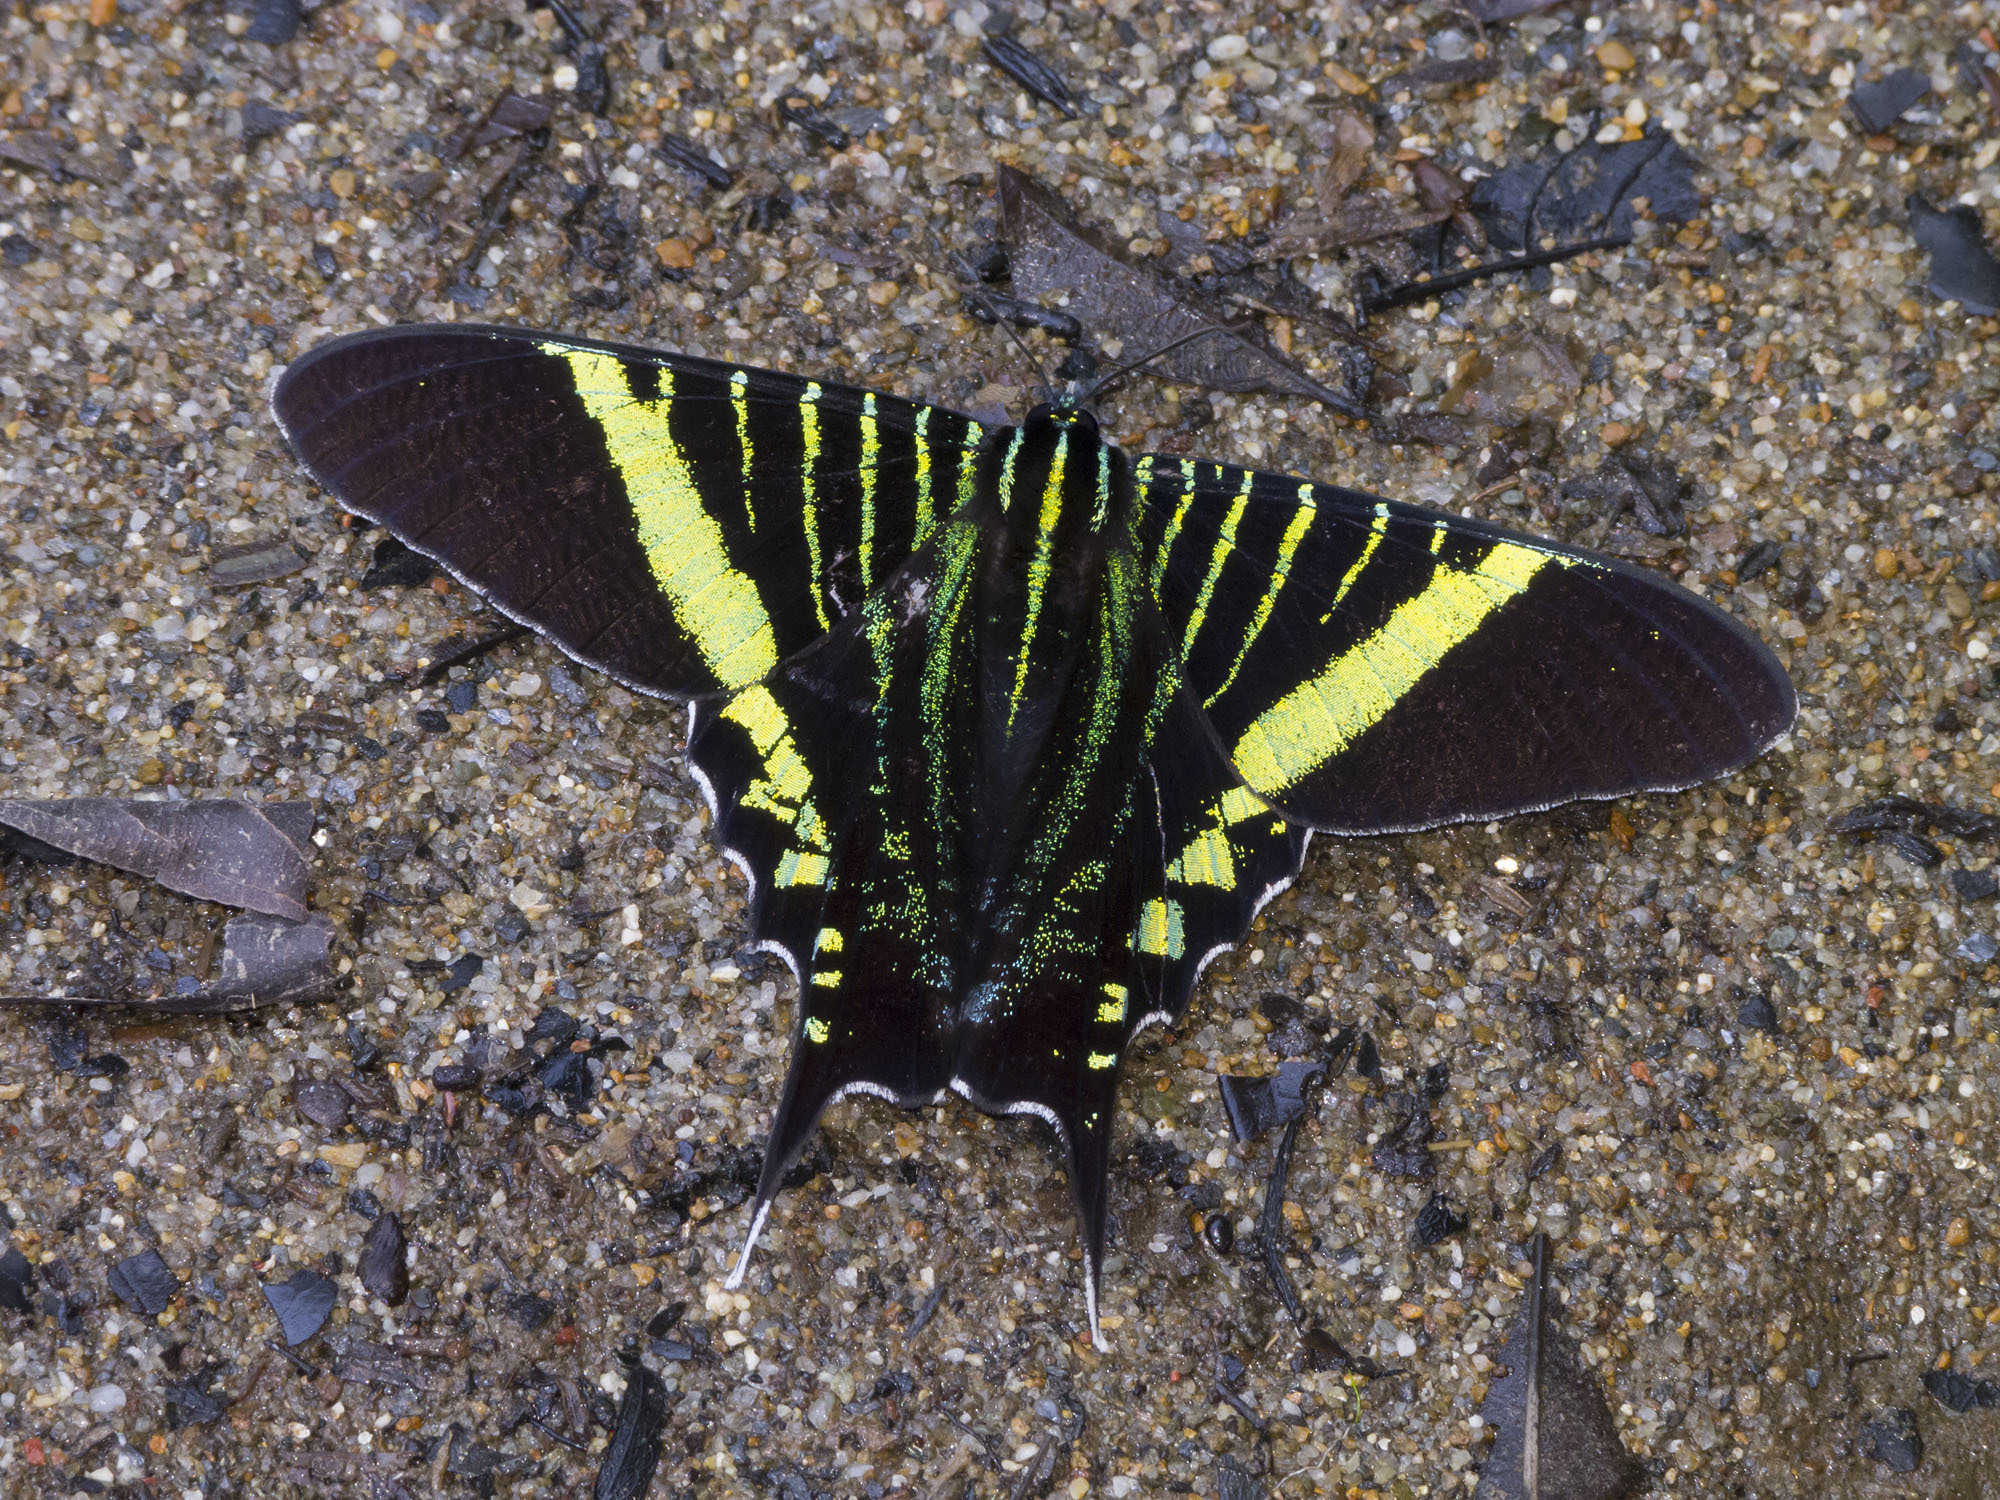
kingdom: Animalia
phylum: Arthropoda
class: Insecta
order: Lepidoptera
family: Uraniidae
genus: Urania
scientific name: Urania fulgens
